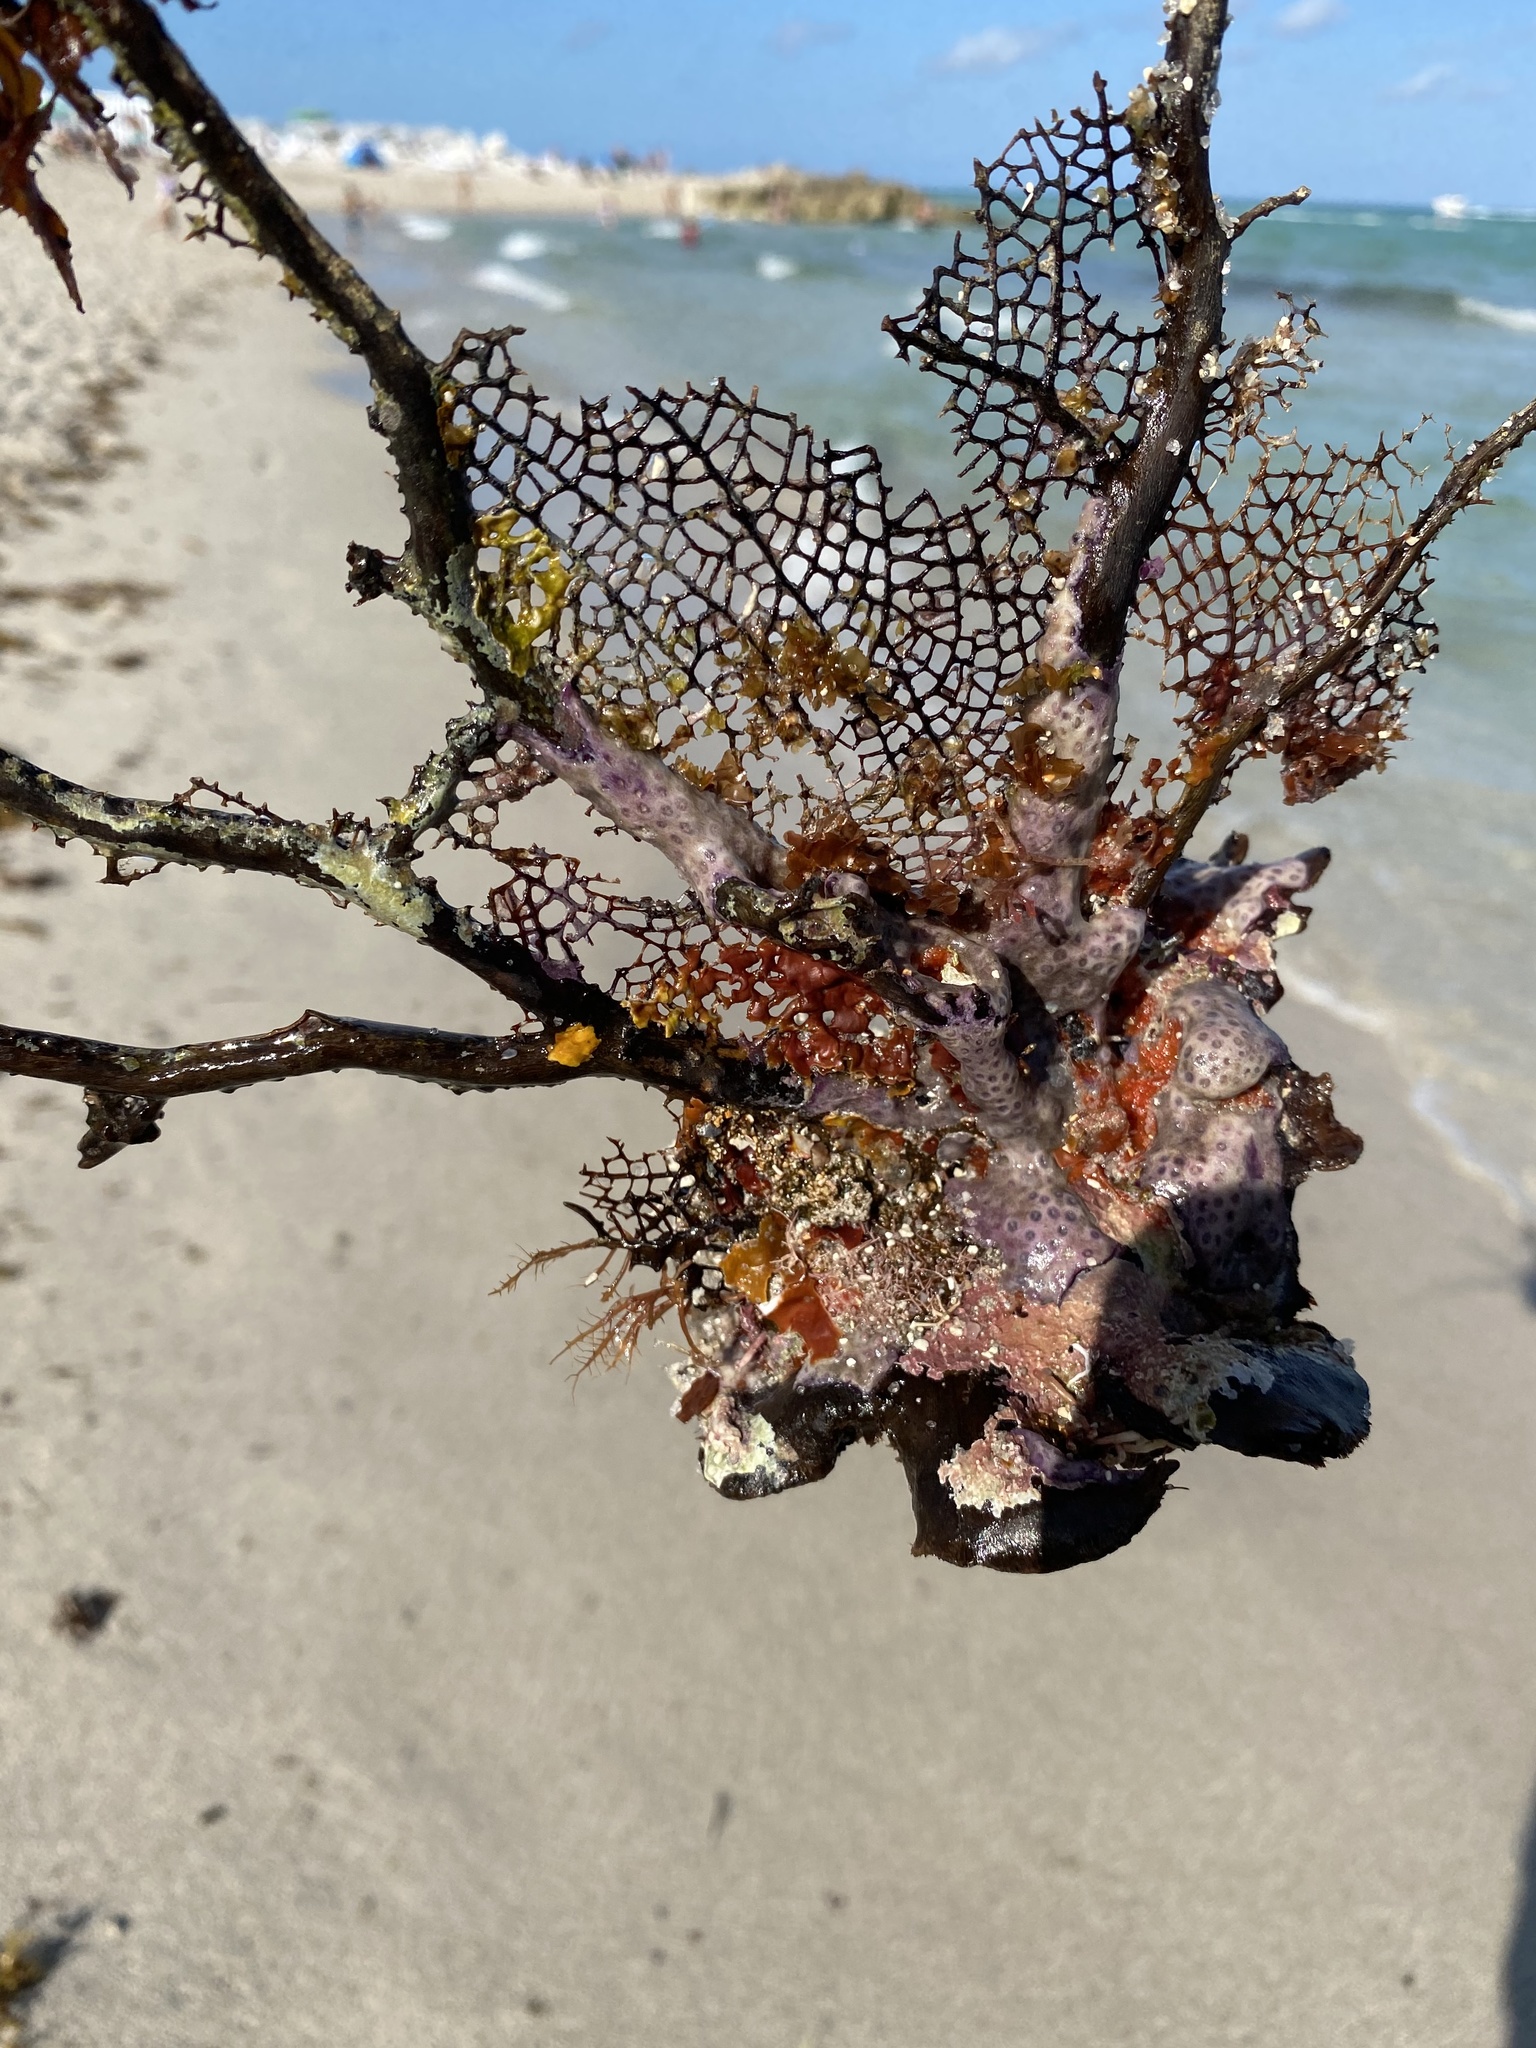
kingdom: Animalia
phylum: Cnidaria
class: Anthozoa
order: Malacalcyonacea
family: Gorgoniidae
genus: Gorgonia
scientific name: Gorgonia ventalina
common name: Common sea fan
